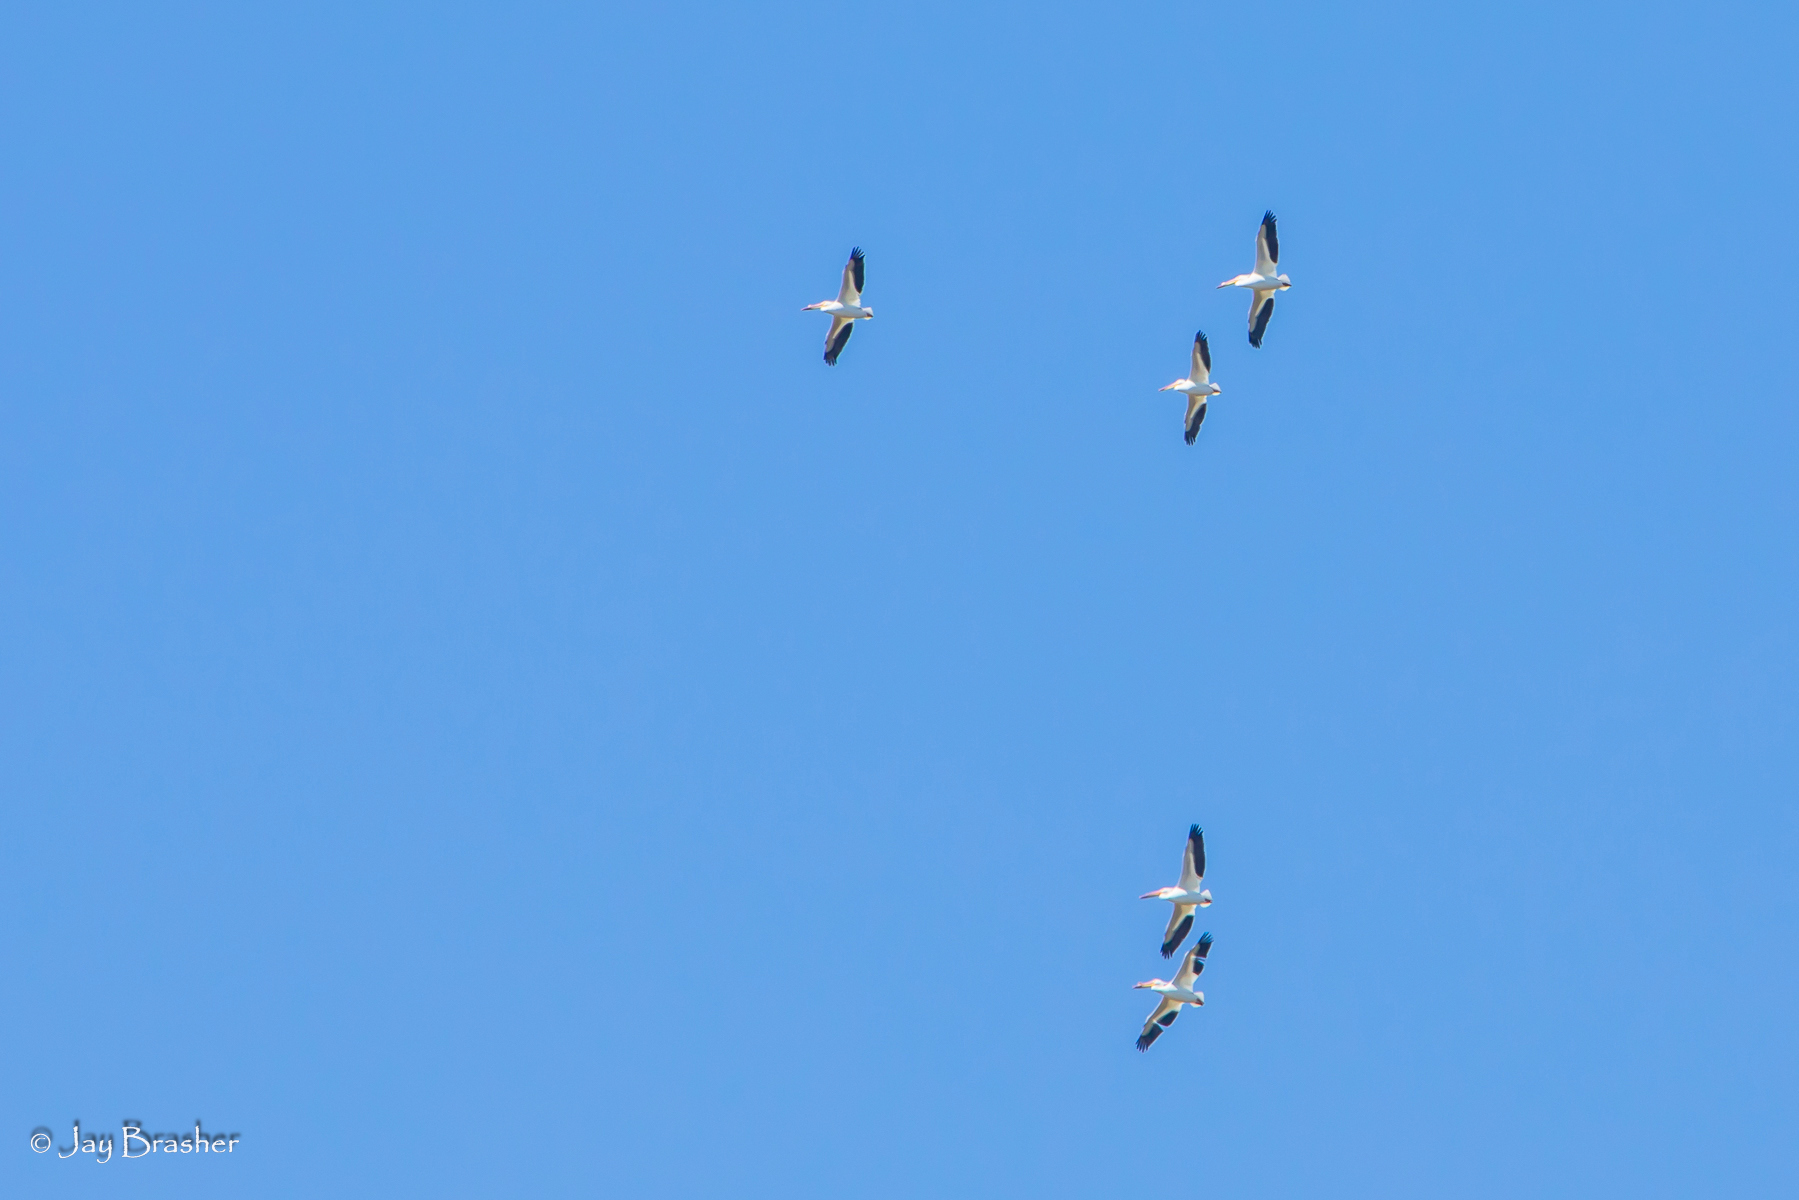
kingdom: Animalia
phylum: Chordata
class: Aves
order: Pelecaniformes
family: Pelecanidae
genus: Pelecanus
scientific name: Pelecanus erythrorhynchos
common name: American white pelican
